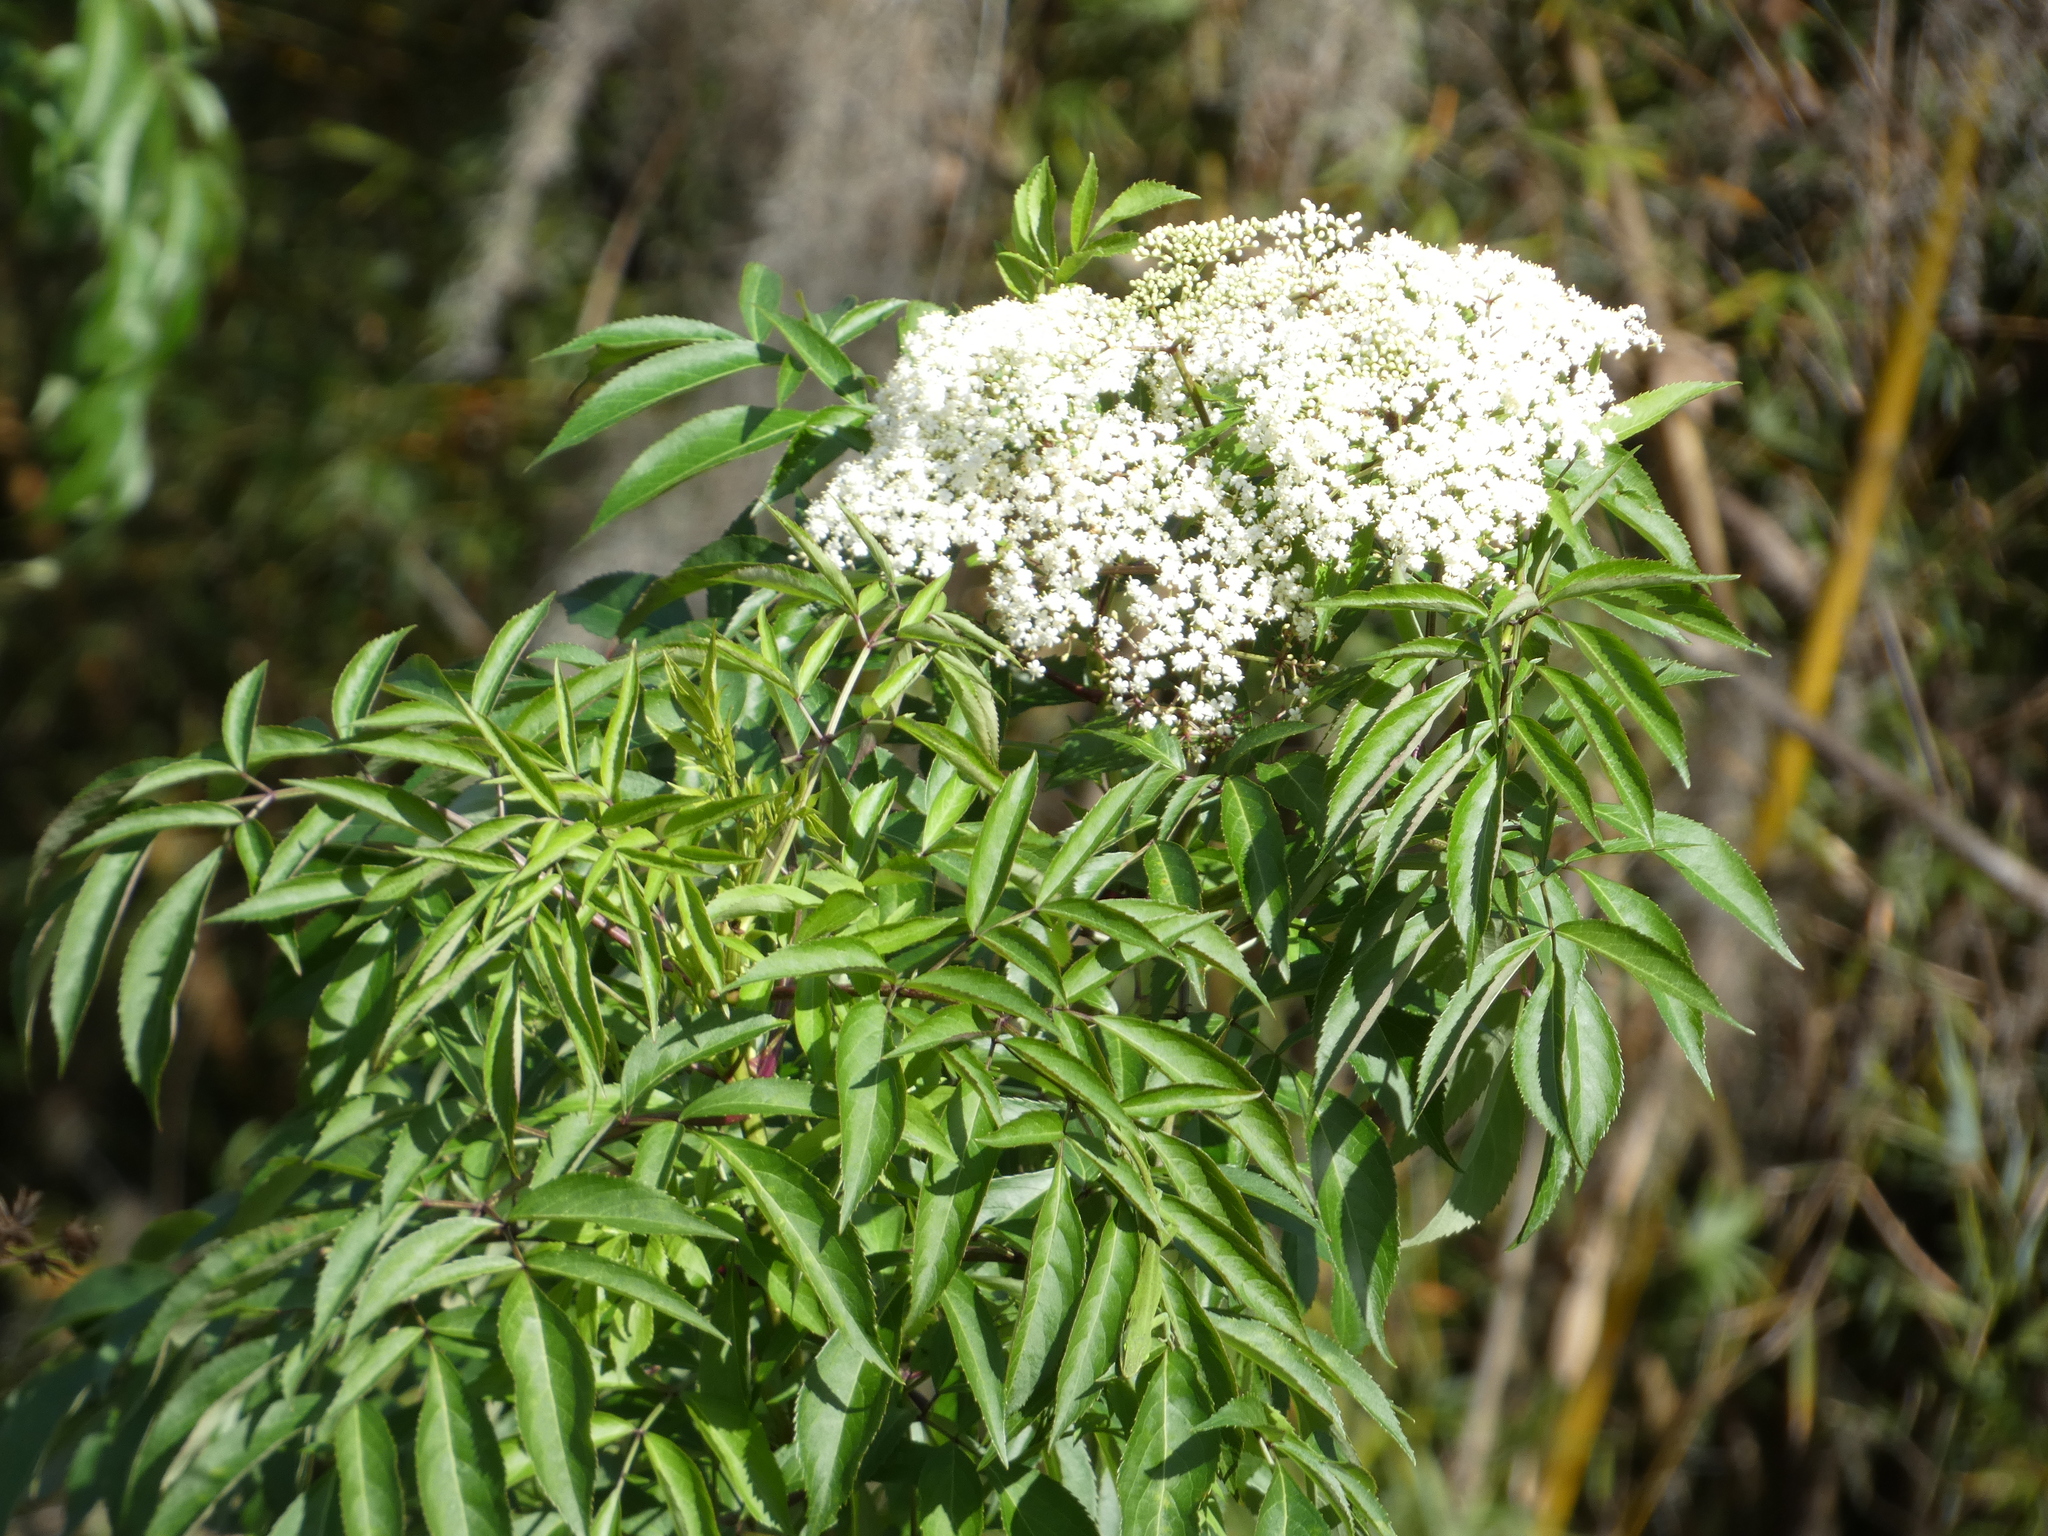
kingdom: Plantae
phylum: Tracheophyta
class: Magnoliopsida
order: Dipsacales
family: Viburnaceae
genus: Sambucus
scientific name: Sambucus canadensis
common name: American elder
